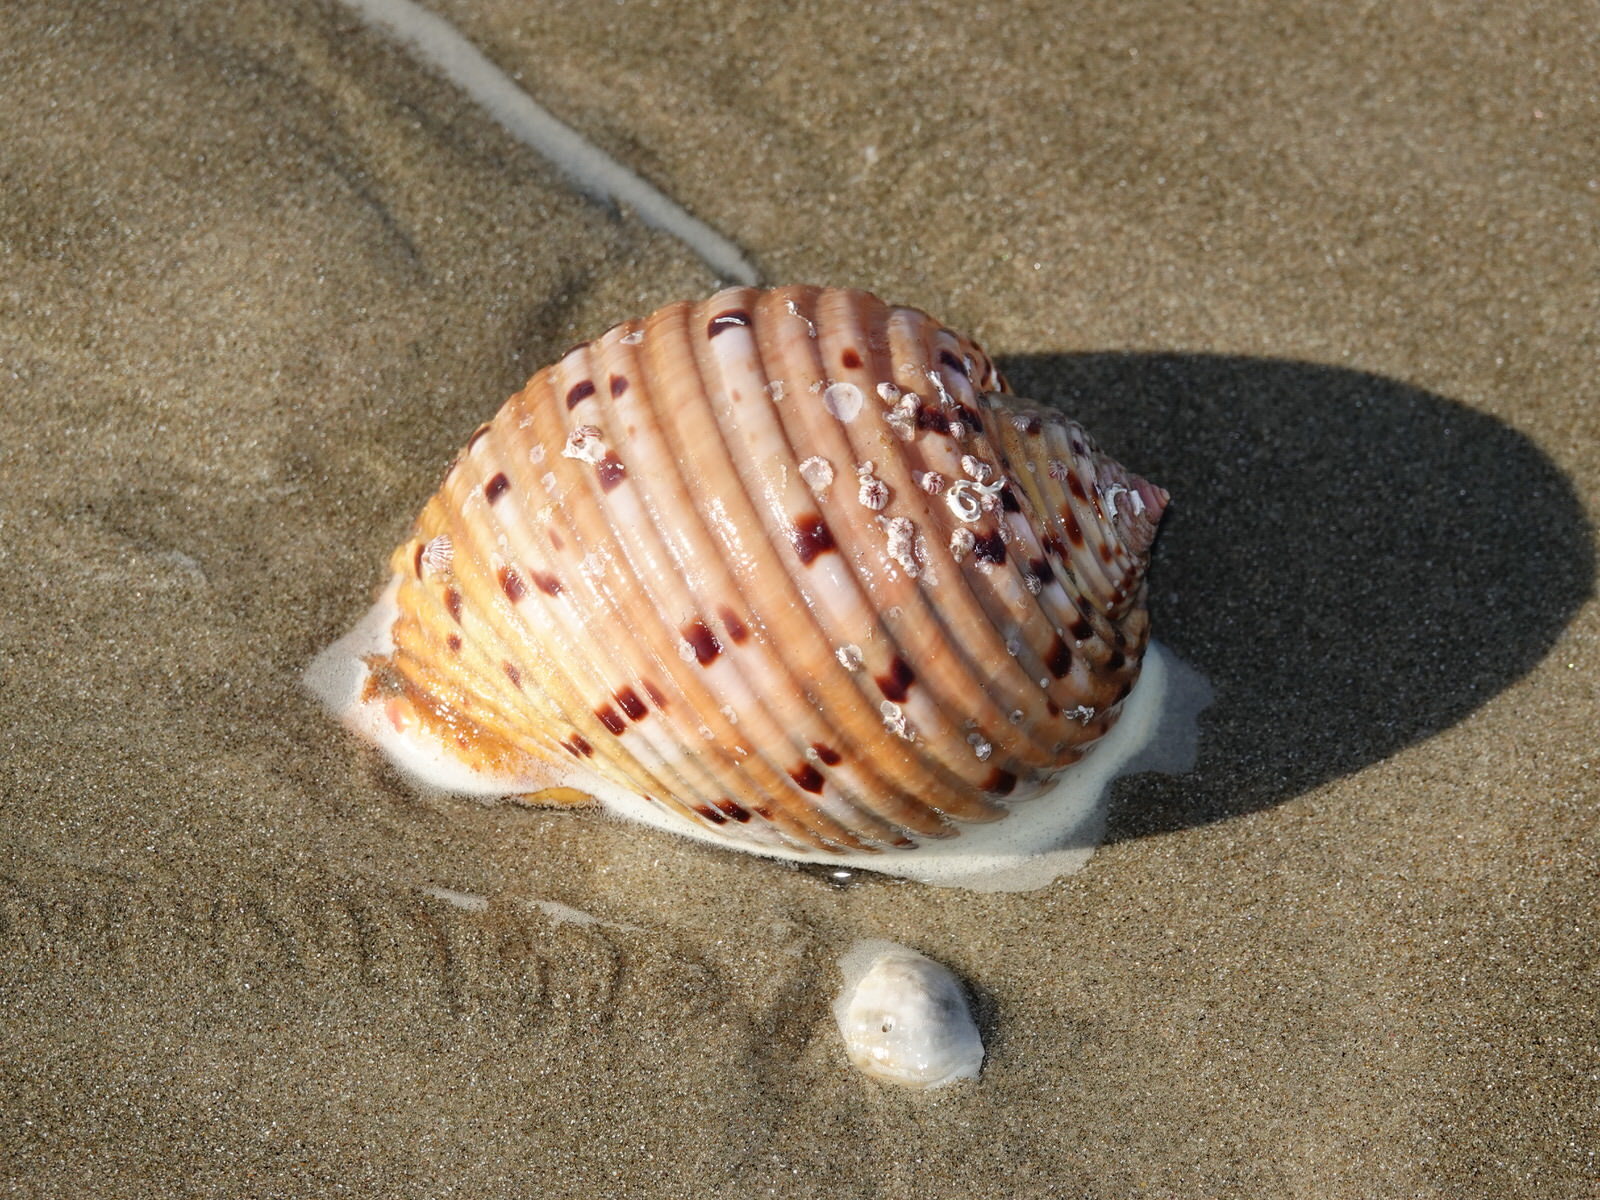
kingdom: Animalia
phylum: Mollusca
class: Gastropoda
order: Littorinimorpha
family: Tonnidae
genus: Tonna
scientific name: Tonna tankervillii
